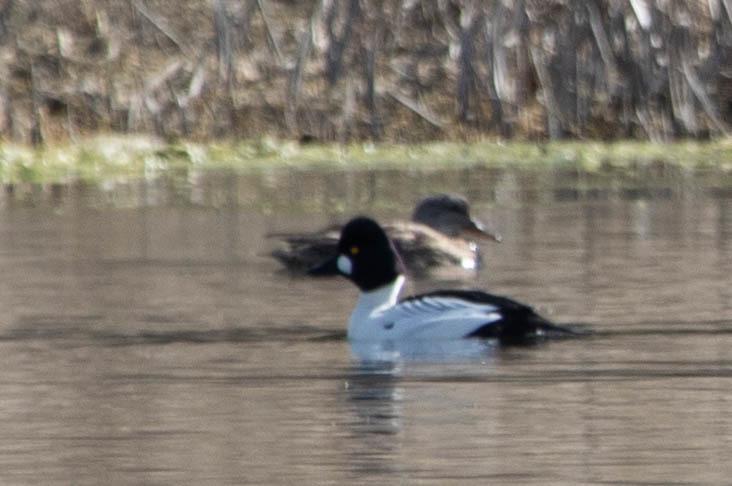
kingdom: Animalia
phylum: Chordata
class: Aves
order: Anseriformes
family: Anatidae
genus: Bucephala
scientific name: Bucephala clangula
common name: Common goldeneye
